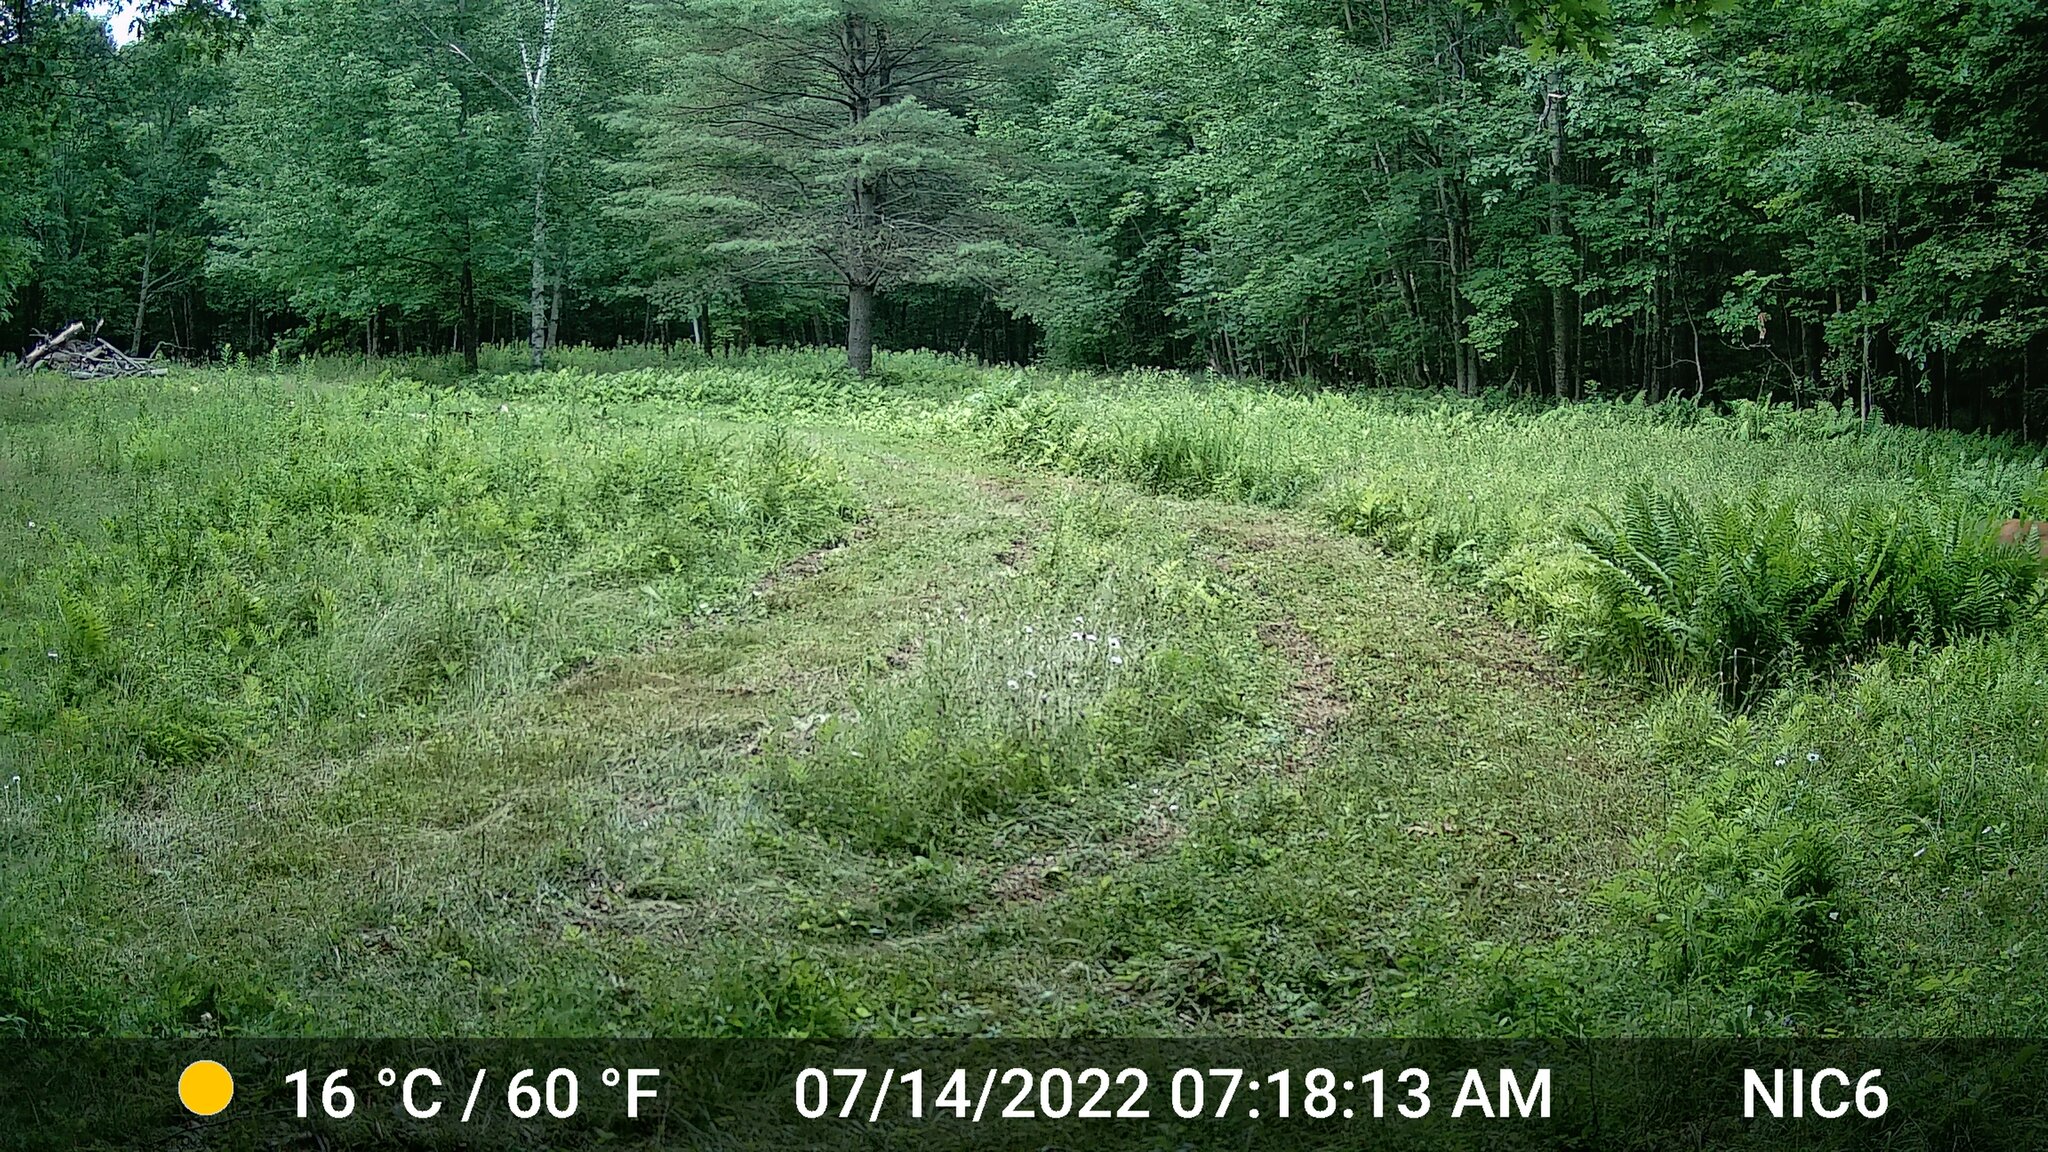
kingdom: Animalia
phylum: Chordata
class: Mammalia
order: Artiodactyla
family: Cervidae
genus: Odocoileus
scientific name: Odocoileus virginianus
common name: White-tailed deer
